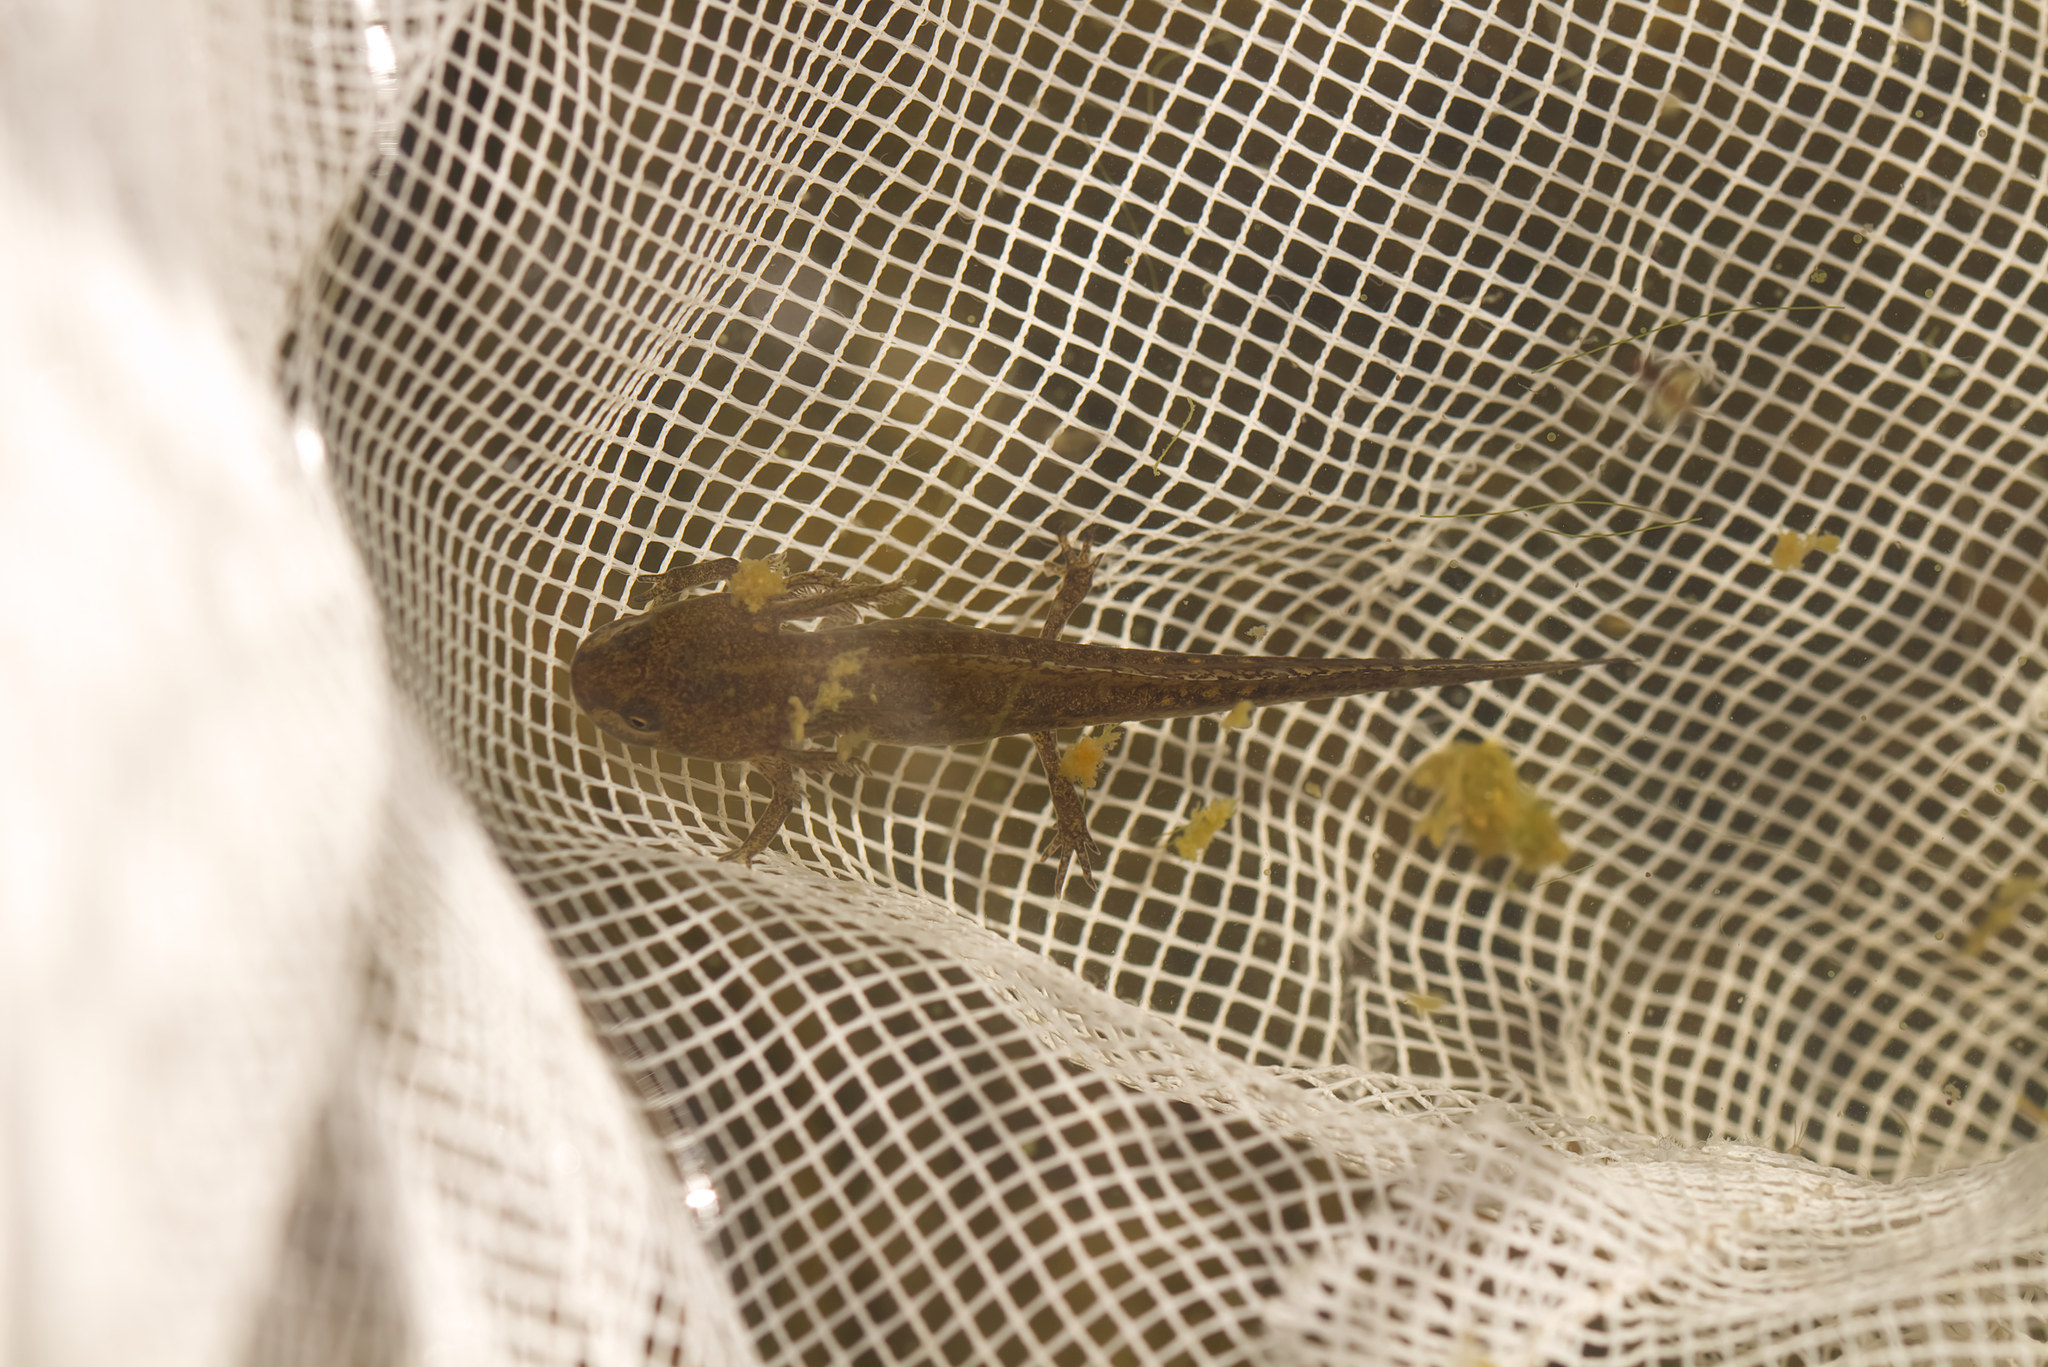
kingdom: Animalia
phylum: Chordata
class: Amphibia
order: Caudata
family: Salamandridae
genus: Ichthyosaura
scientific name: Ichthyosaura alpestris
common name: Alpine newt
